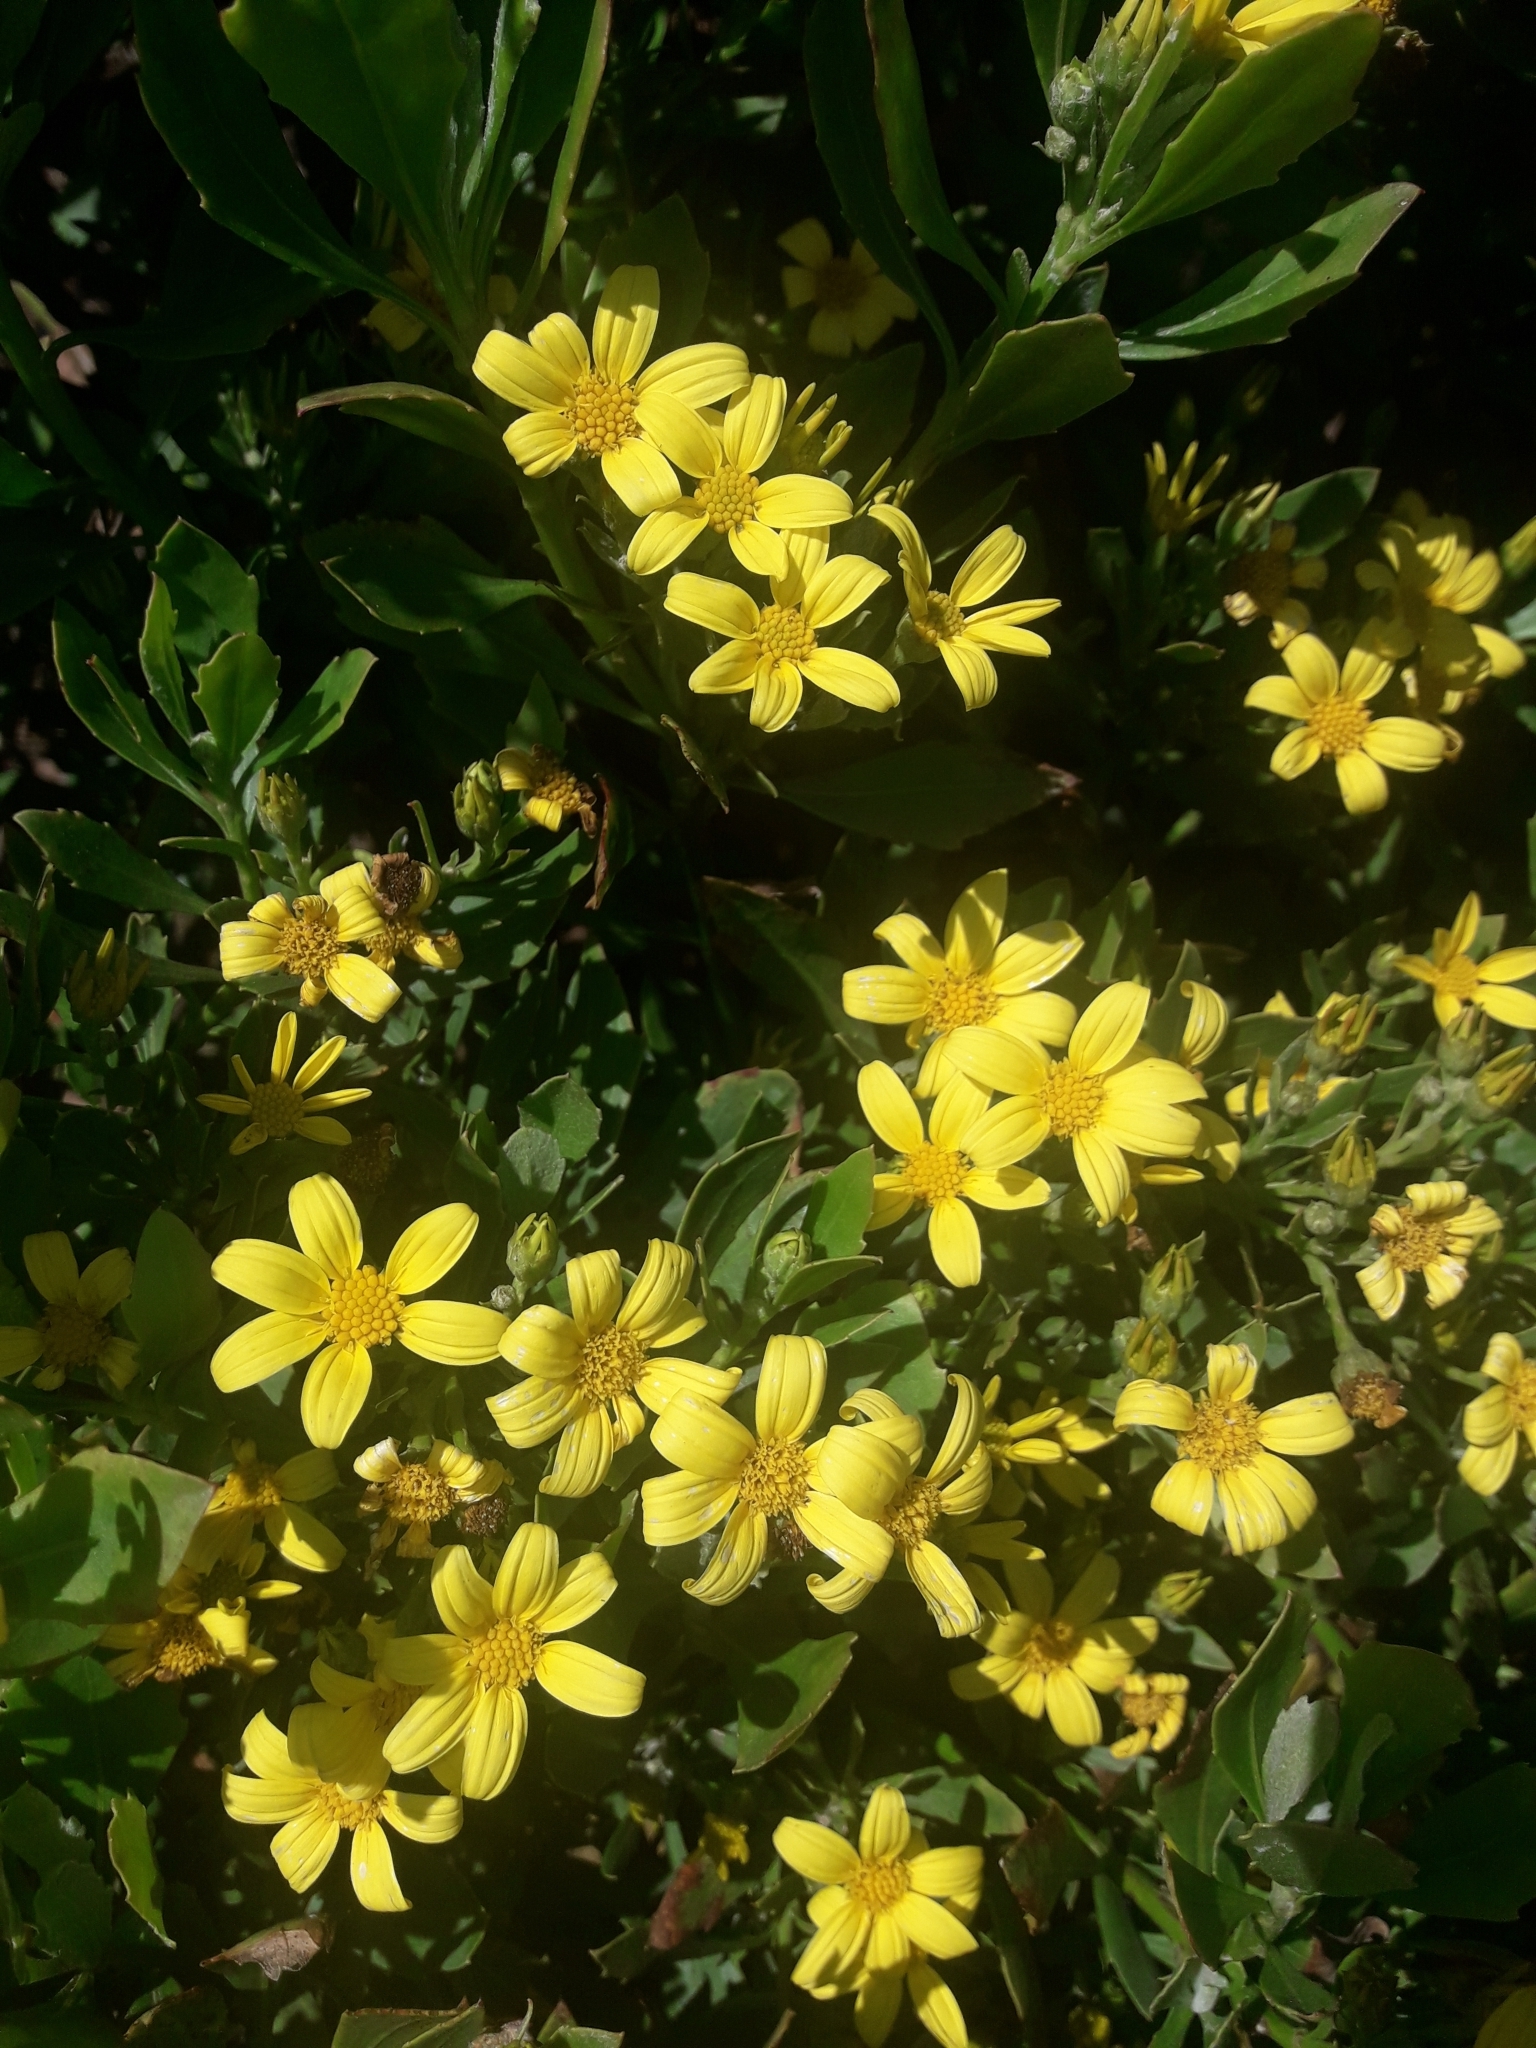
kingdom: Plantae
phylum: Tracheophyta
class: Magnoliopsida
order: Asterales
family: Asteraceae
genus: Osteospermum
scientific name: Osteospermum moniliferum
